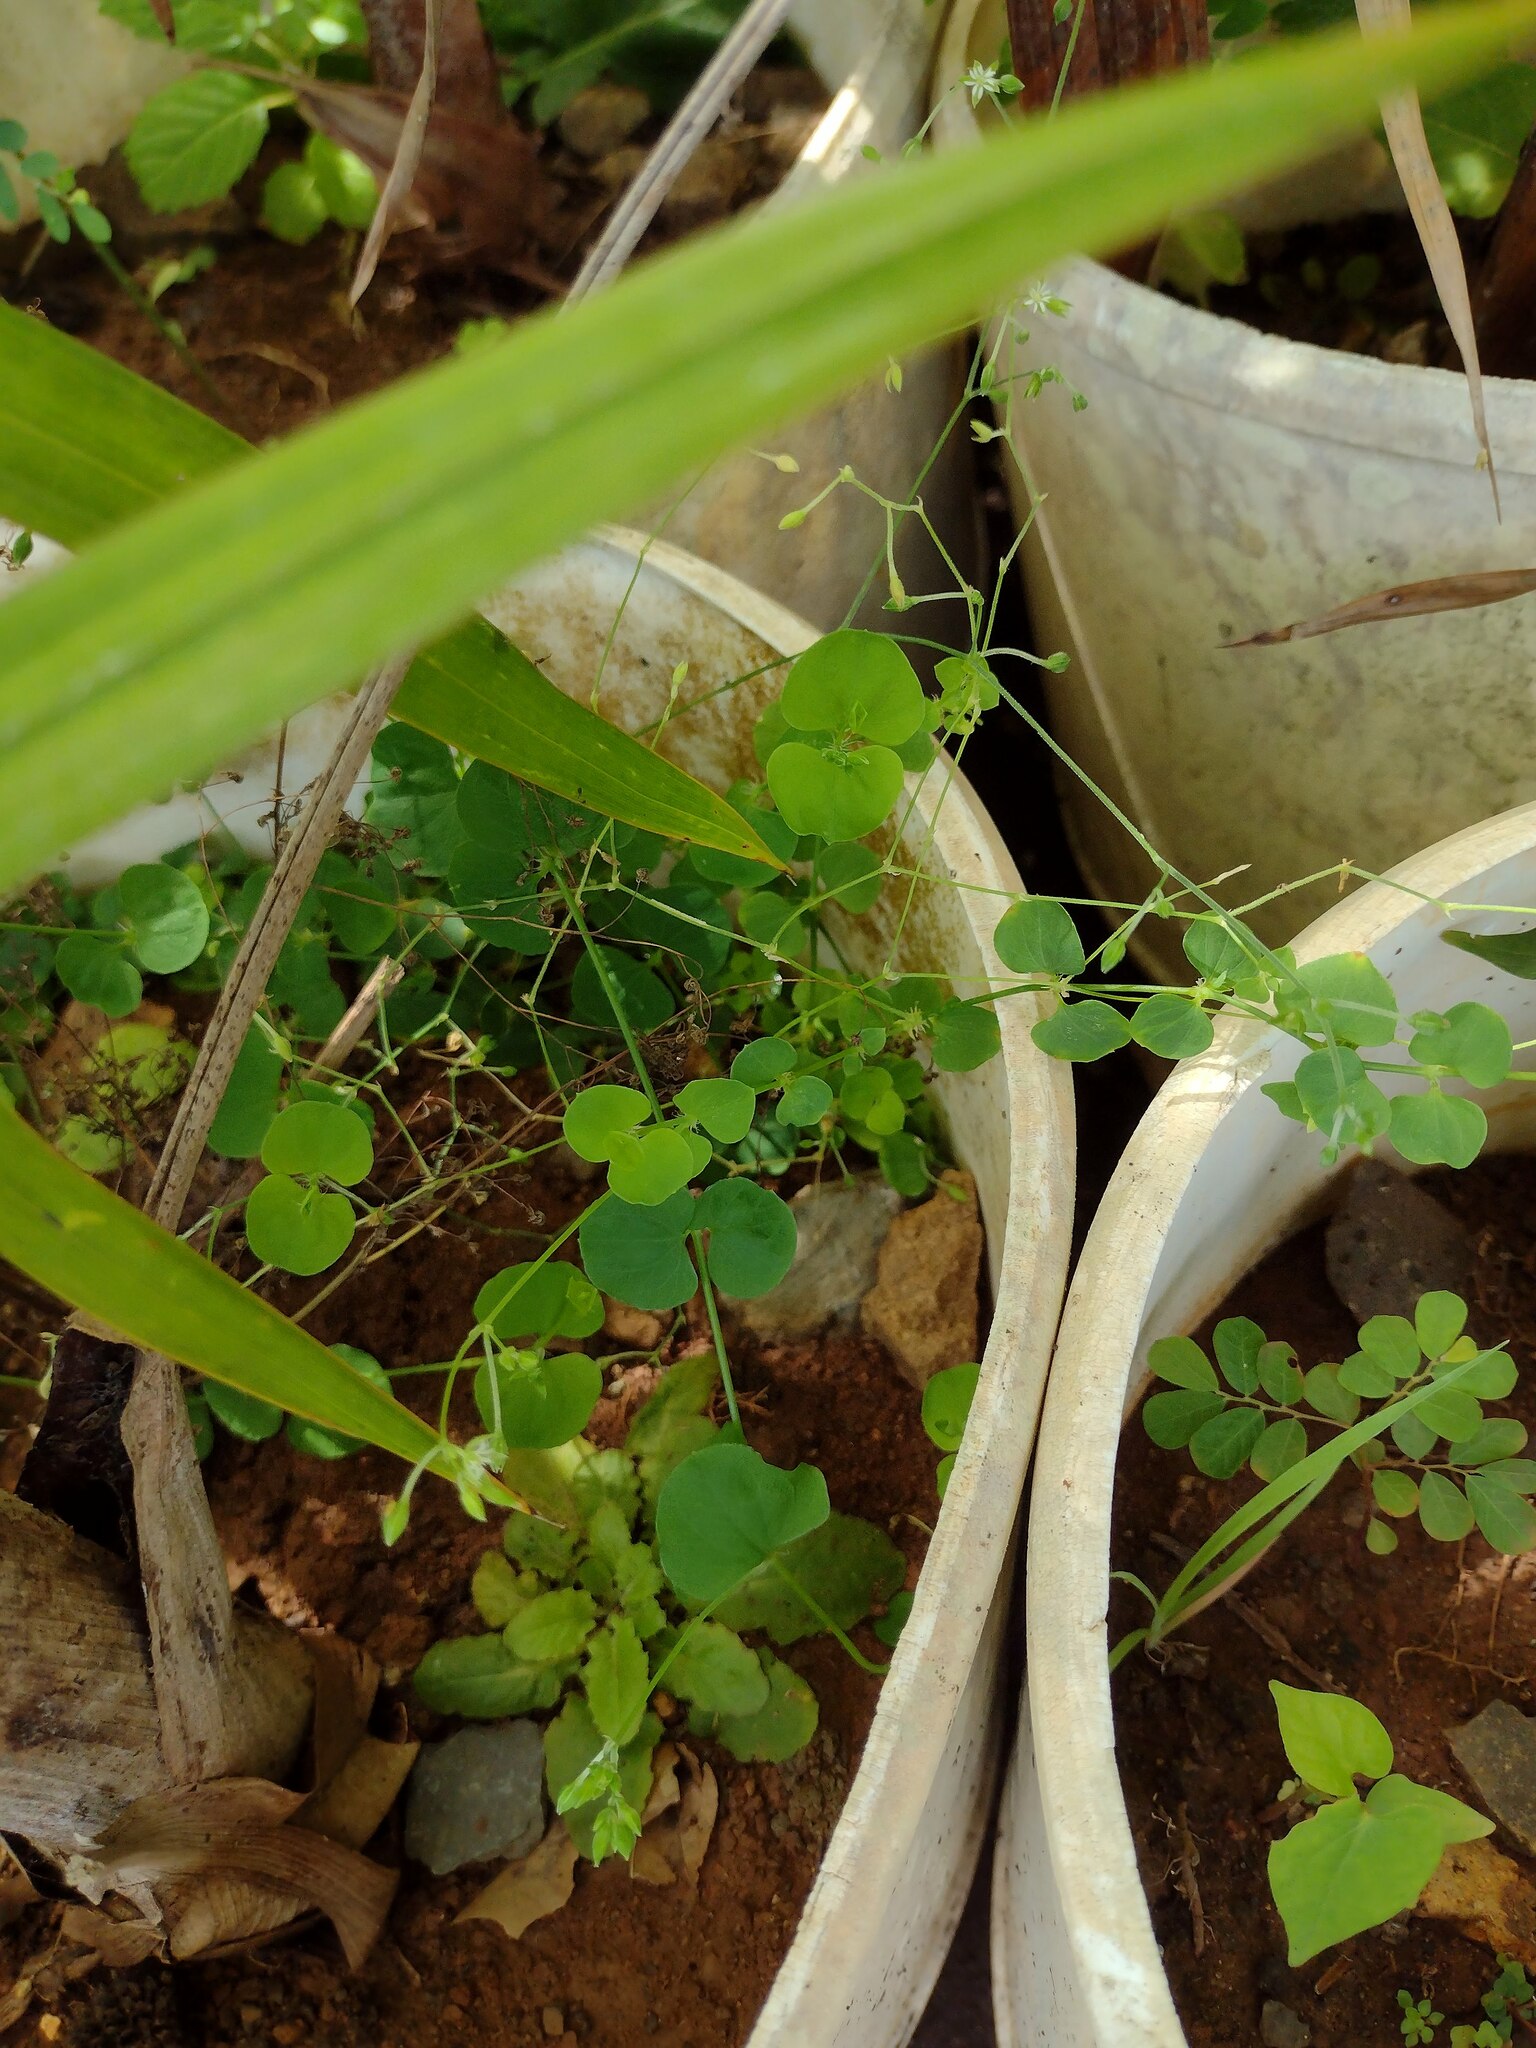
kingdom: Plantae
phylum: Tracheophyta
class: Magnoliopsida
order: Caryophyllales
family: Caryophyllaceae
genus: Drymaria
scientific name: Drymaria cordata
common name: Whitesnow
